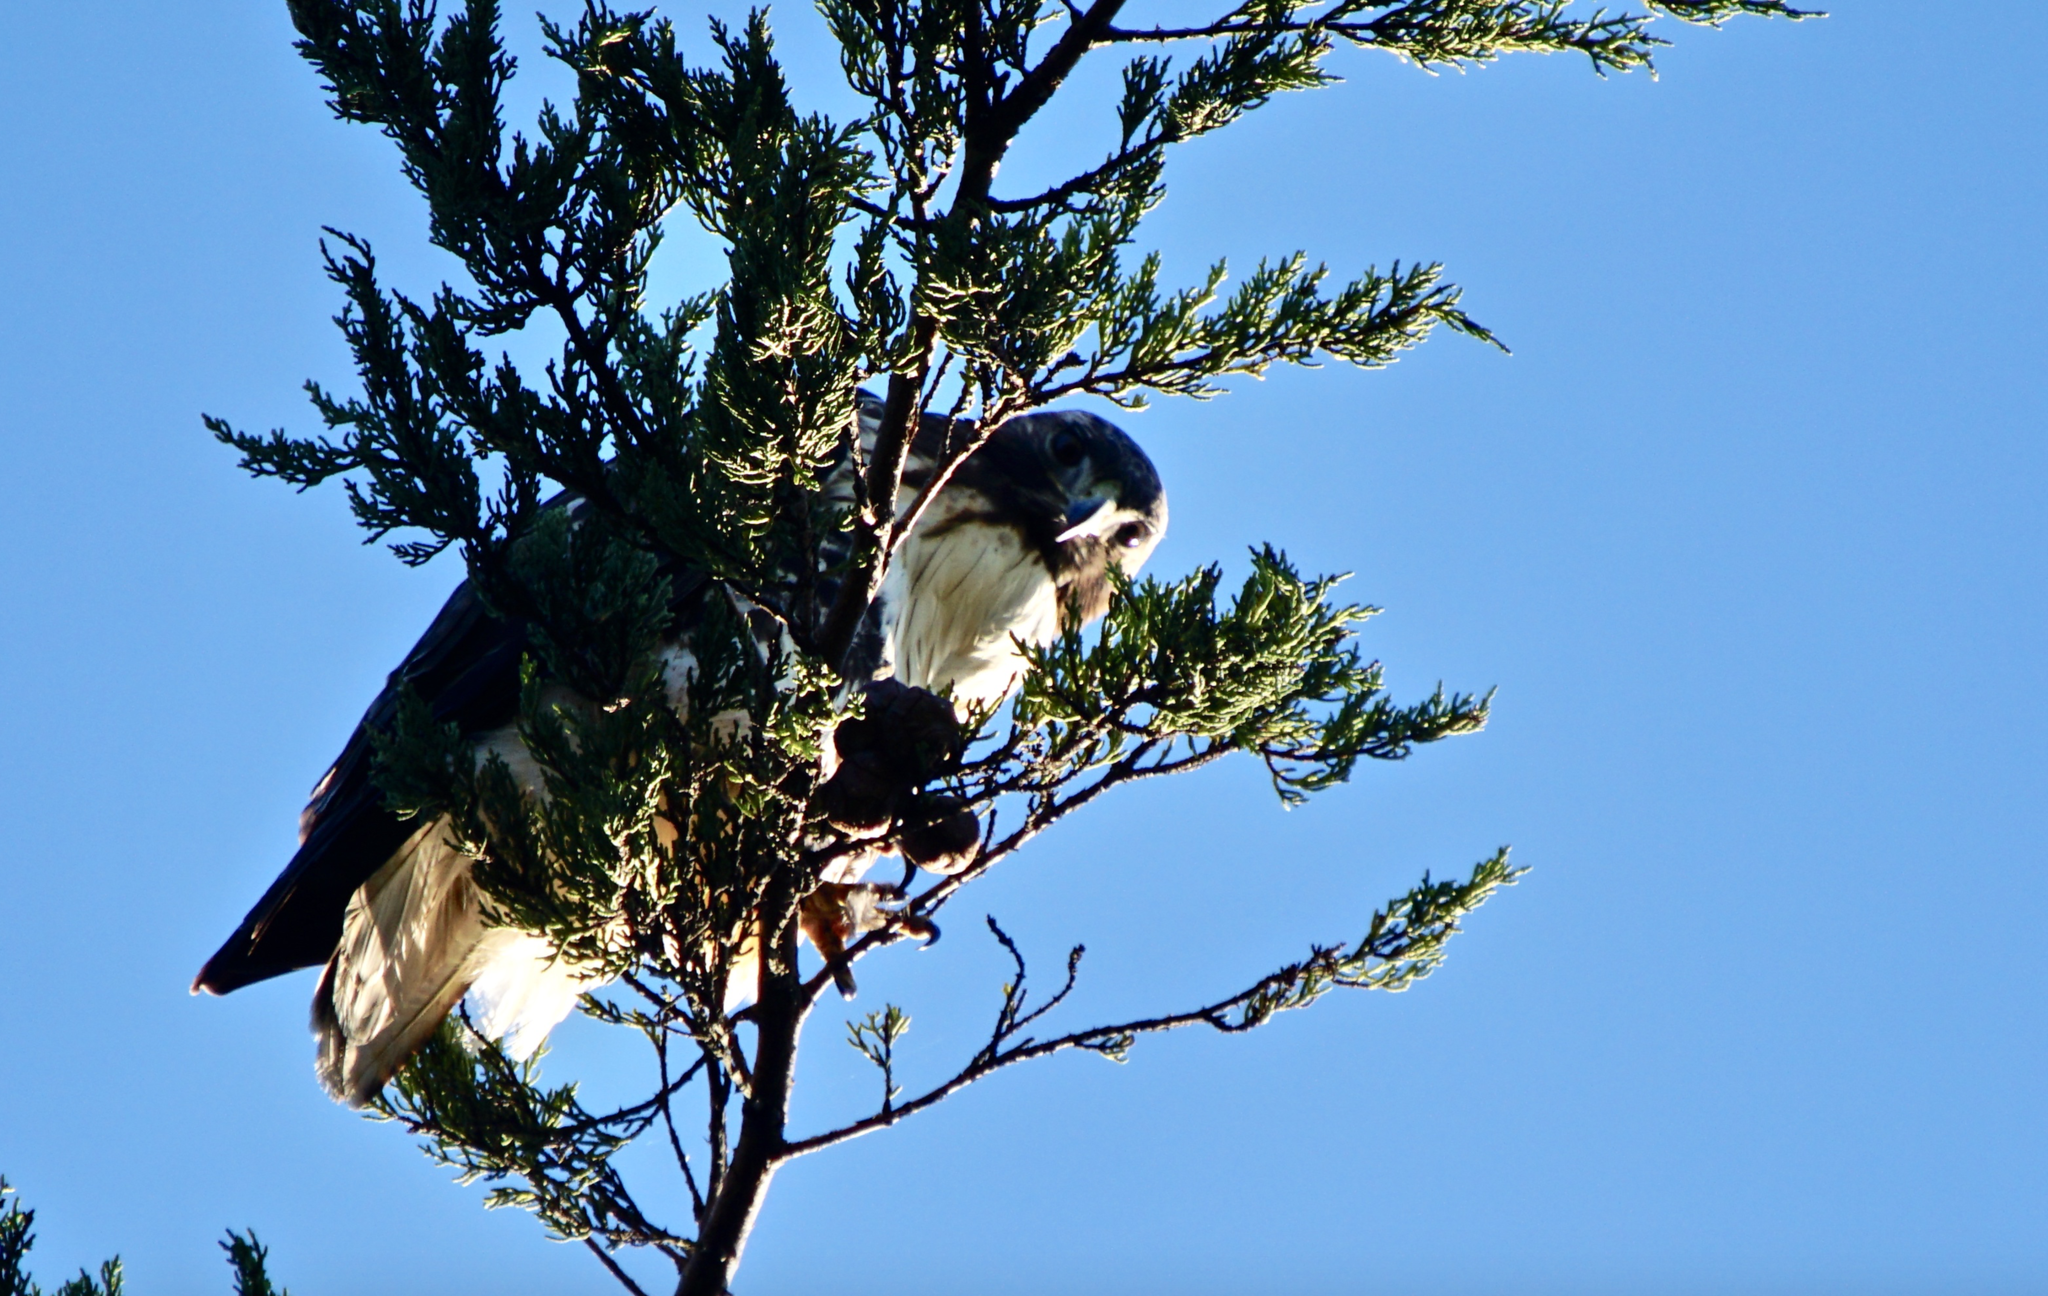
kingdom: Animalia
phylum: Chordata
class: Aves
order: Accipitriformes
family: Accipitridae
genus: Buteo
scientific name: Buteo jamaicensis
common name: Red-tailed hawk
